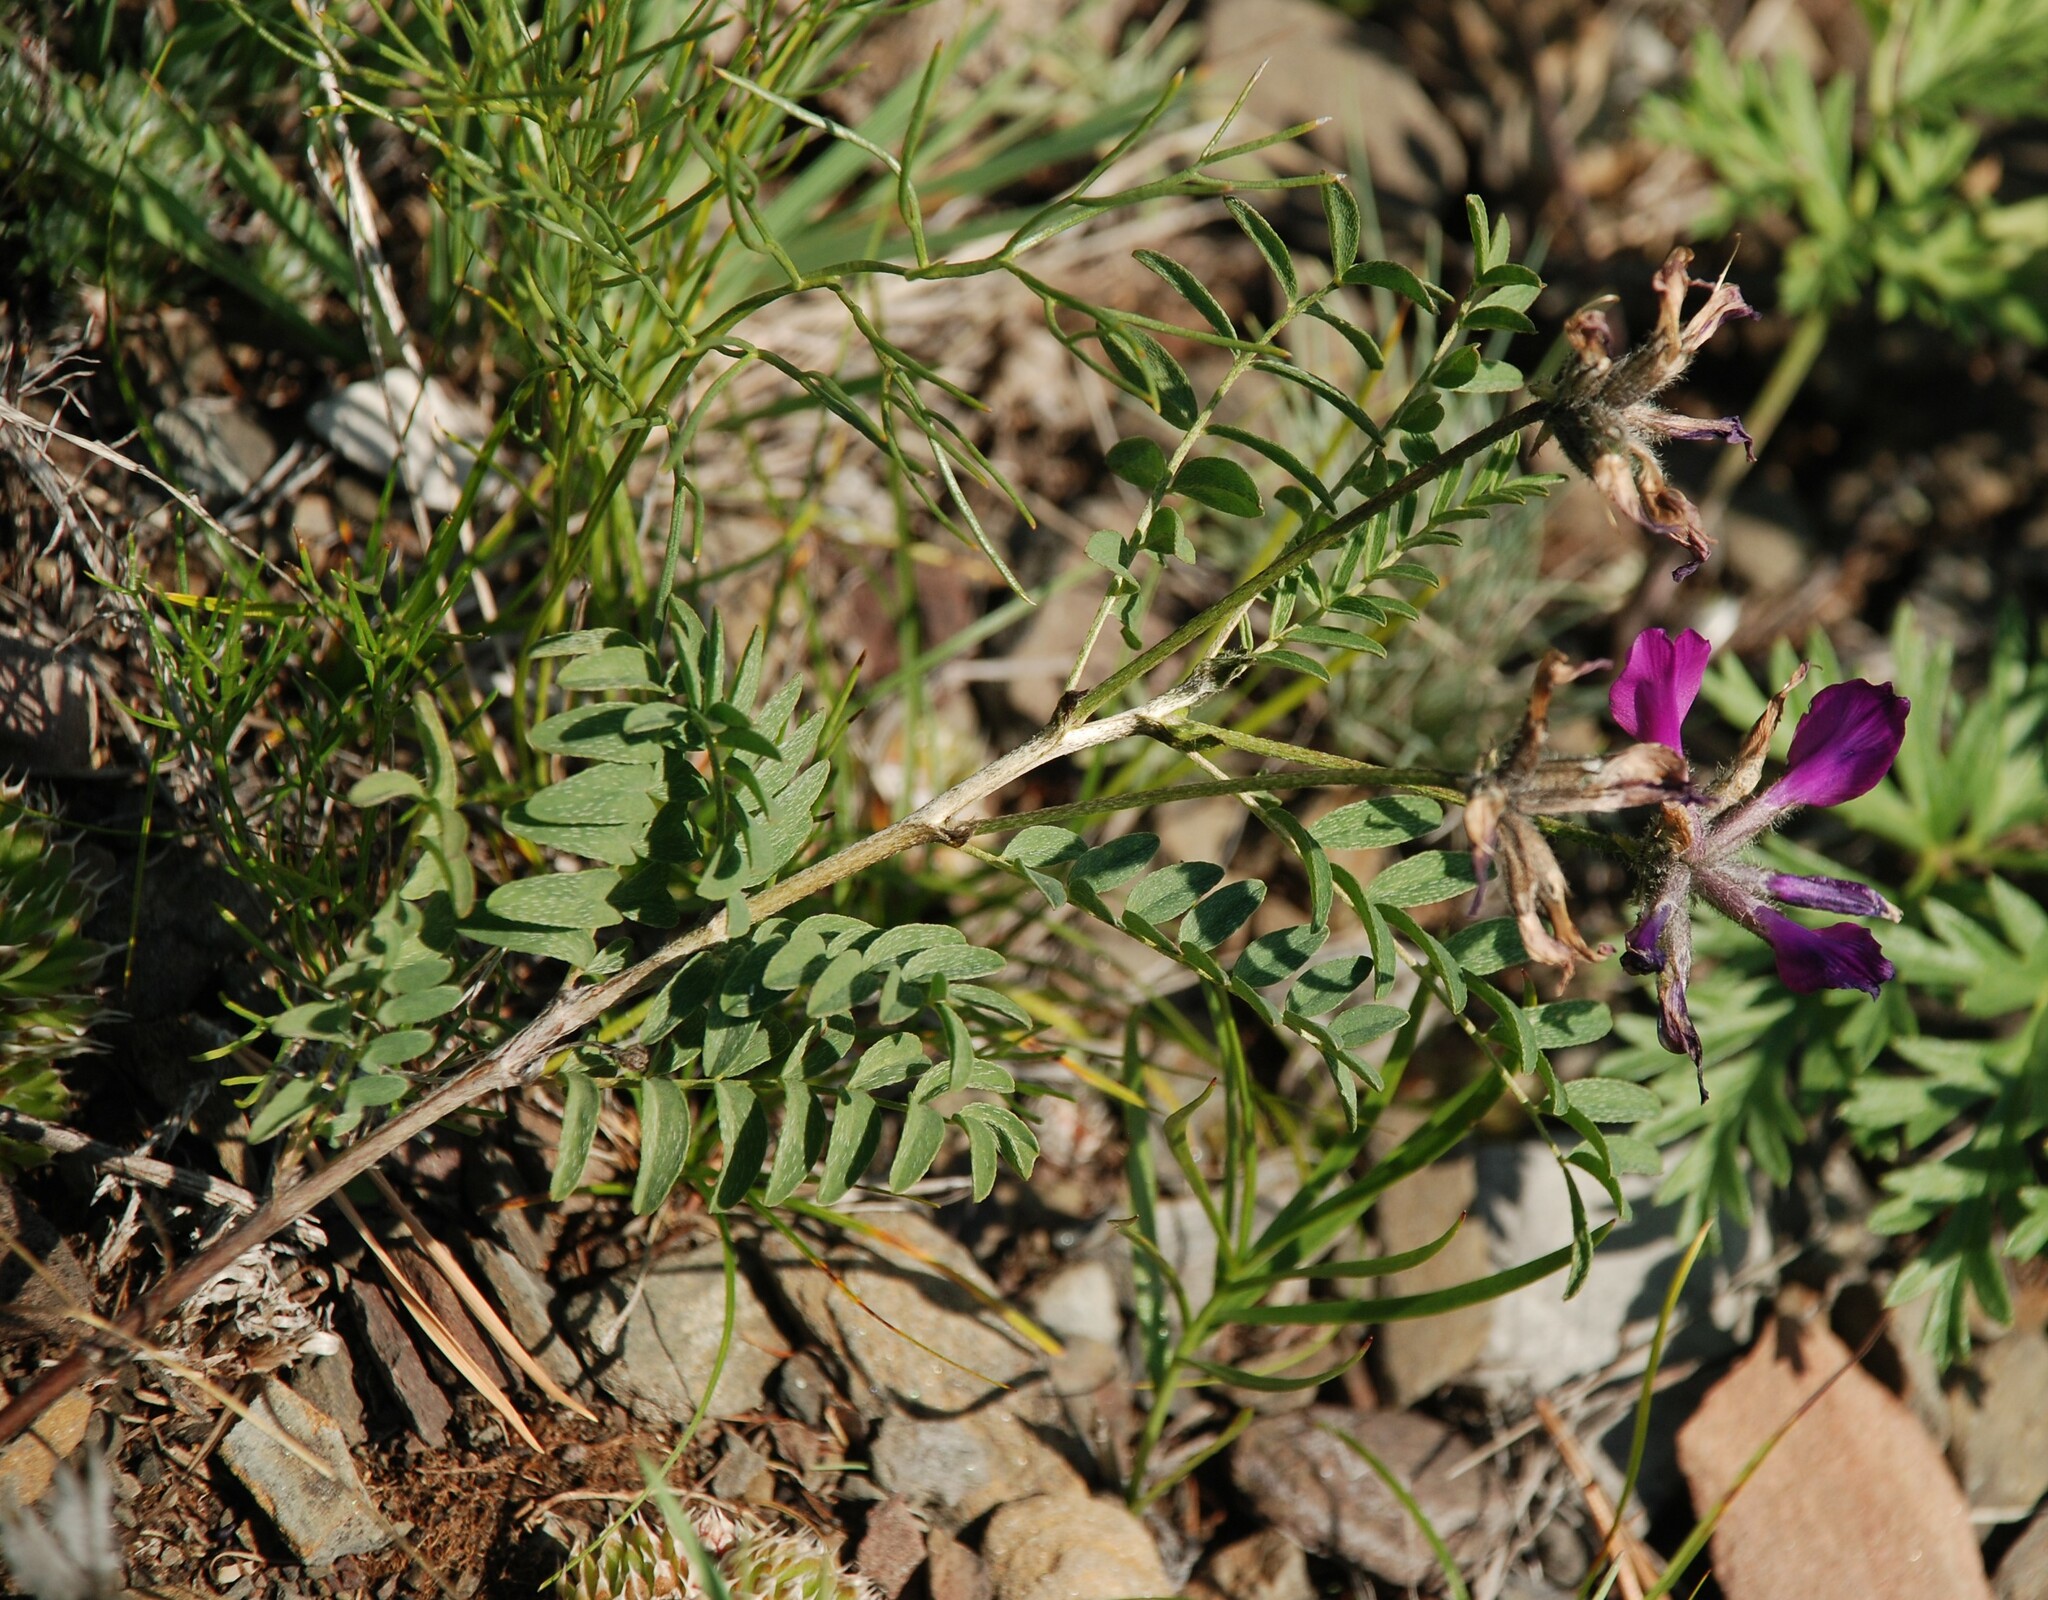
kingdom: Plantae
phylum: Tracheophyta
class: Magnoliopsida
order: Fabales
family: Fabaceae
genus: Astragalus
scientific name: Astragalus syriacus
